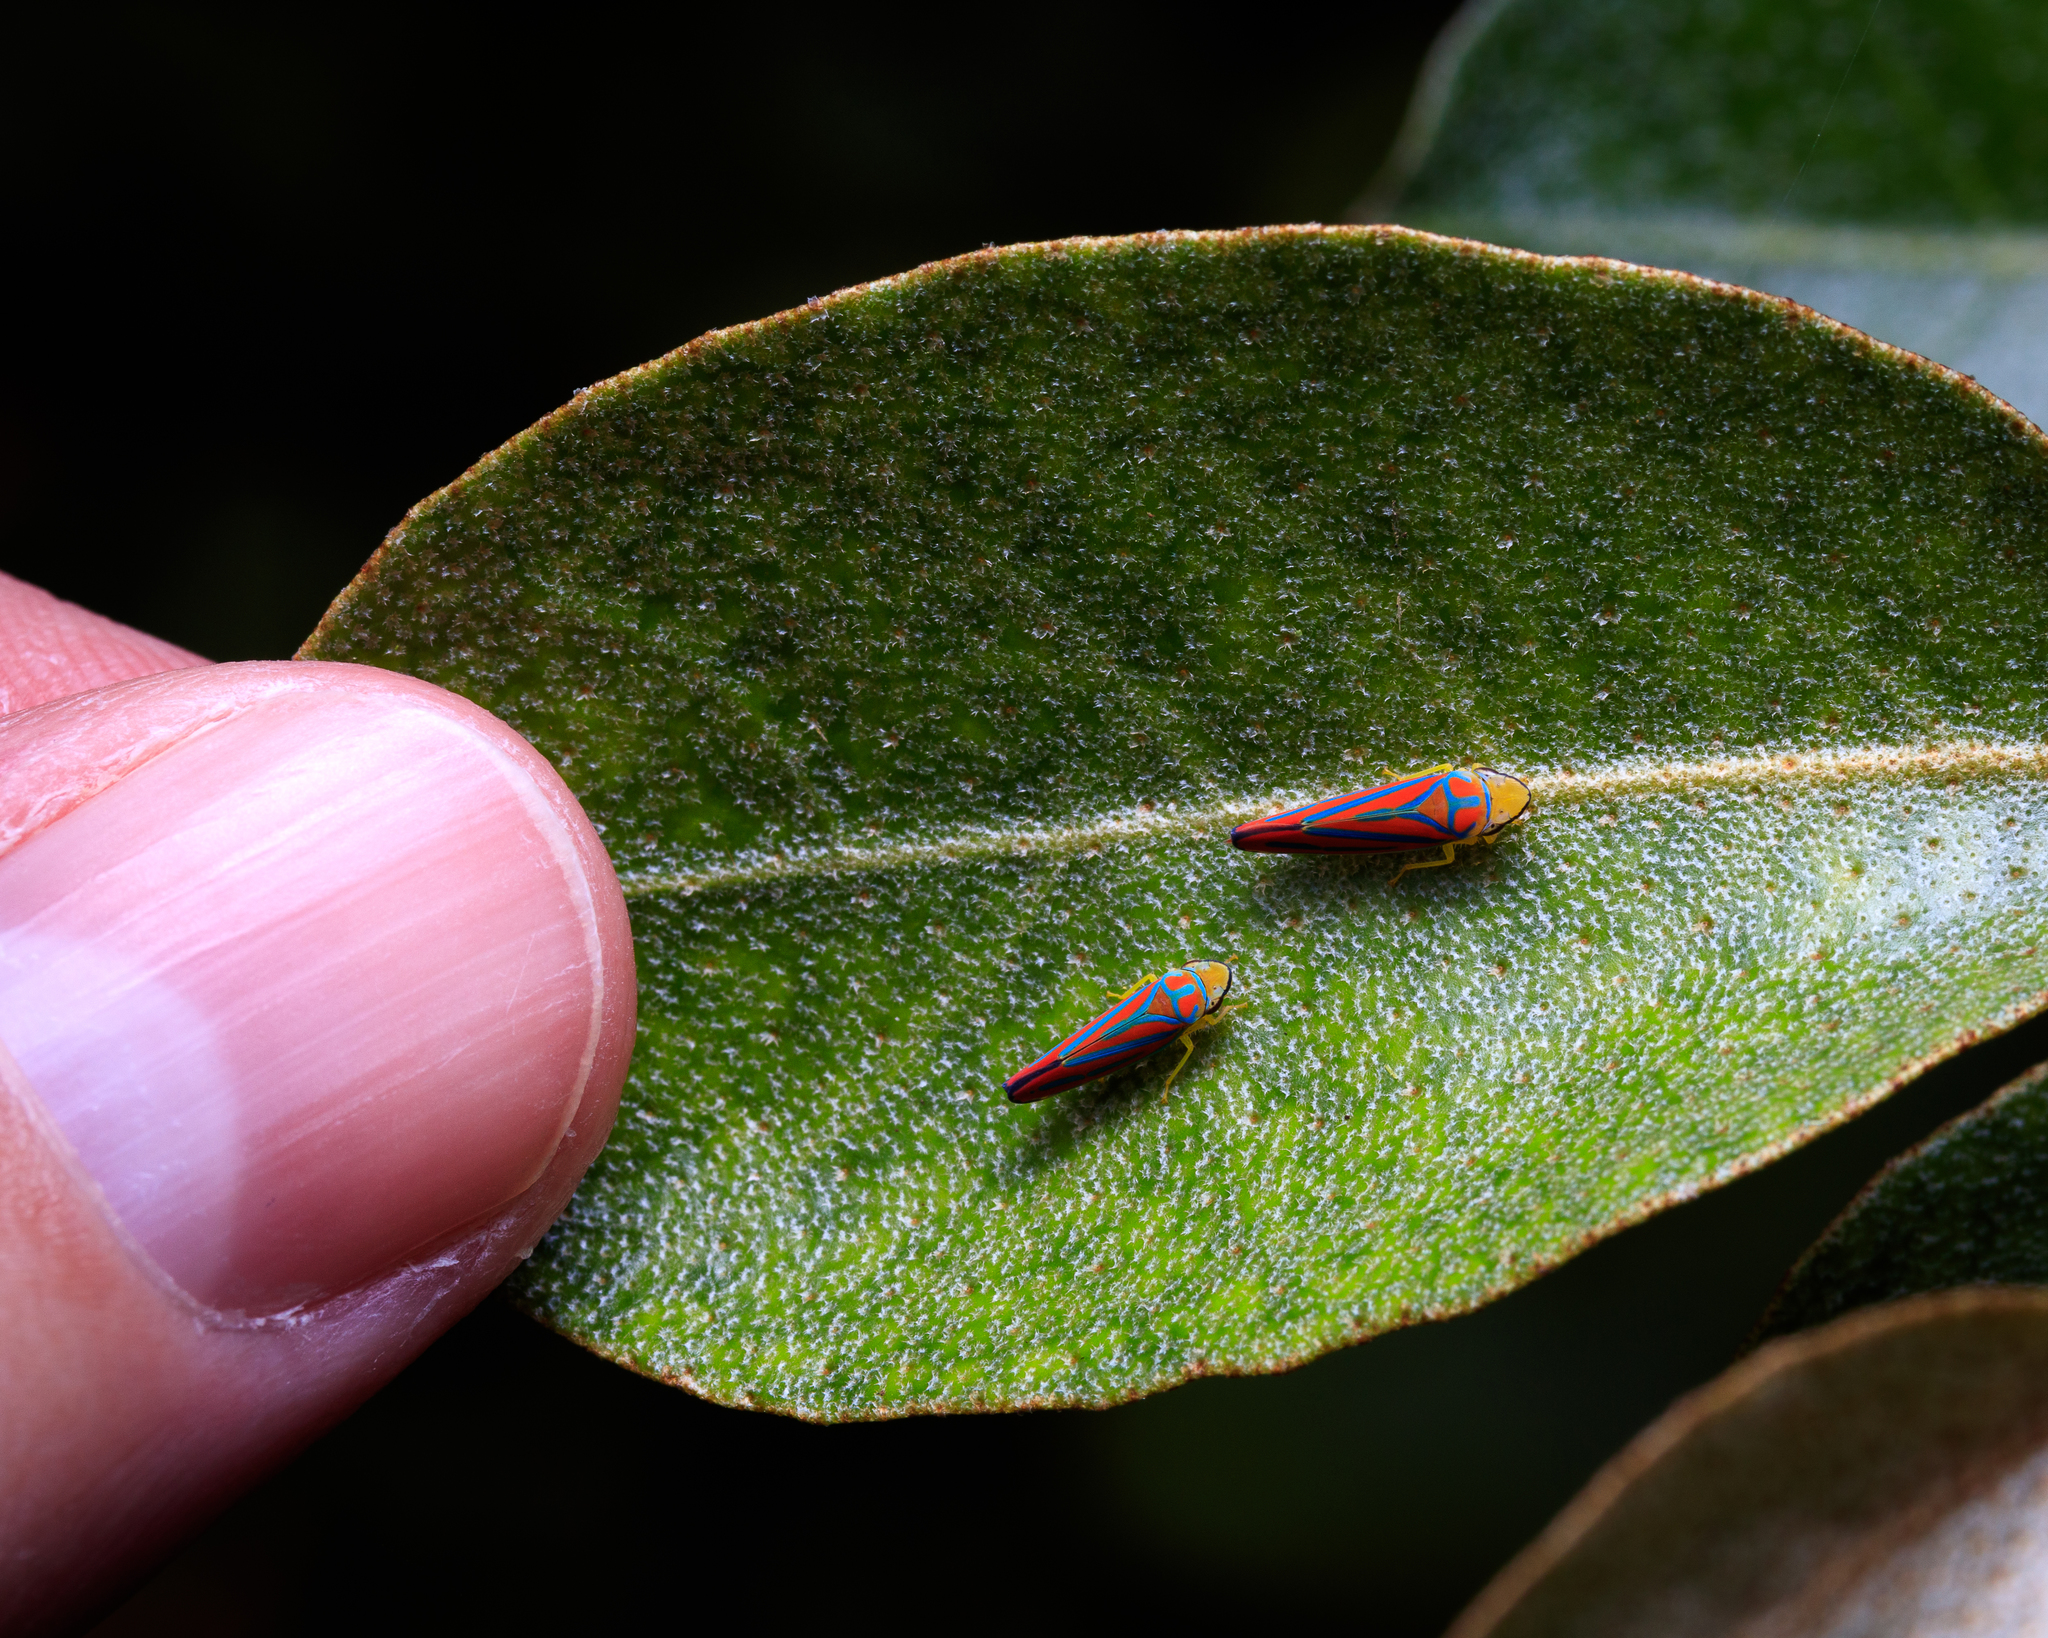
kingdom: Animalia
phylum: Arthropoda
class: Insecta
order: Hemiptera
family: Cicadellidae
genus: Graphocephala
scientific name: Graphocephala coccinea
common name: Candy-striped leafhopper
